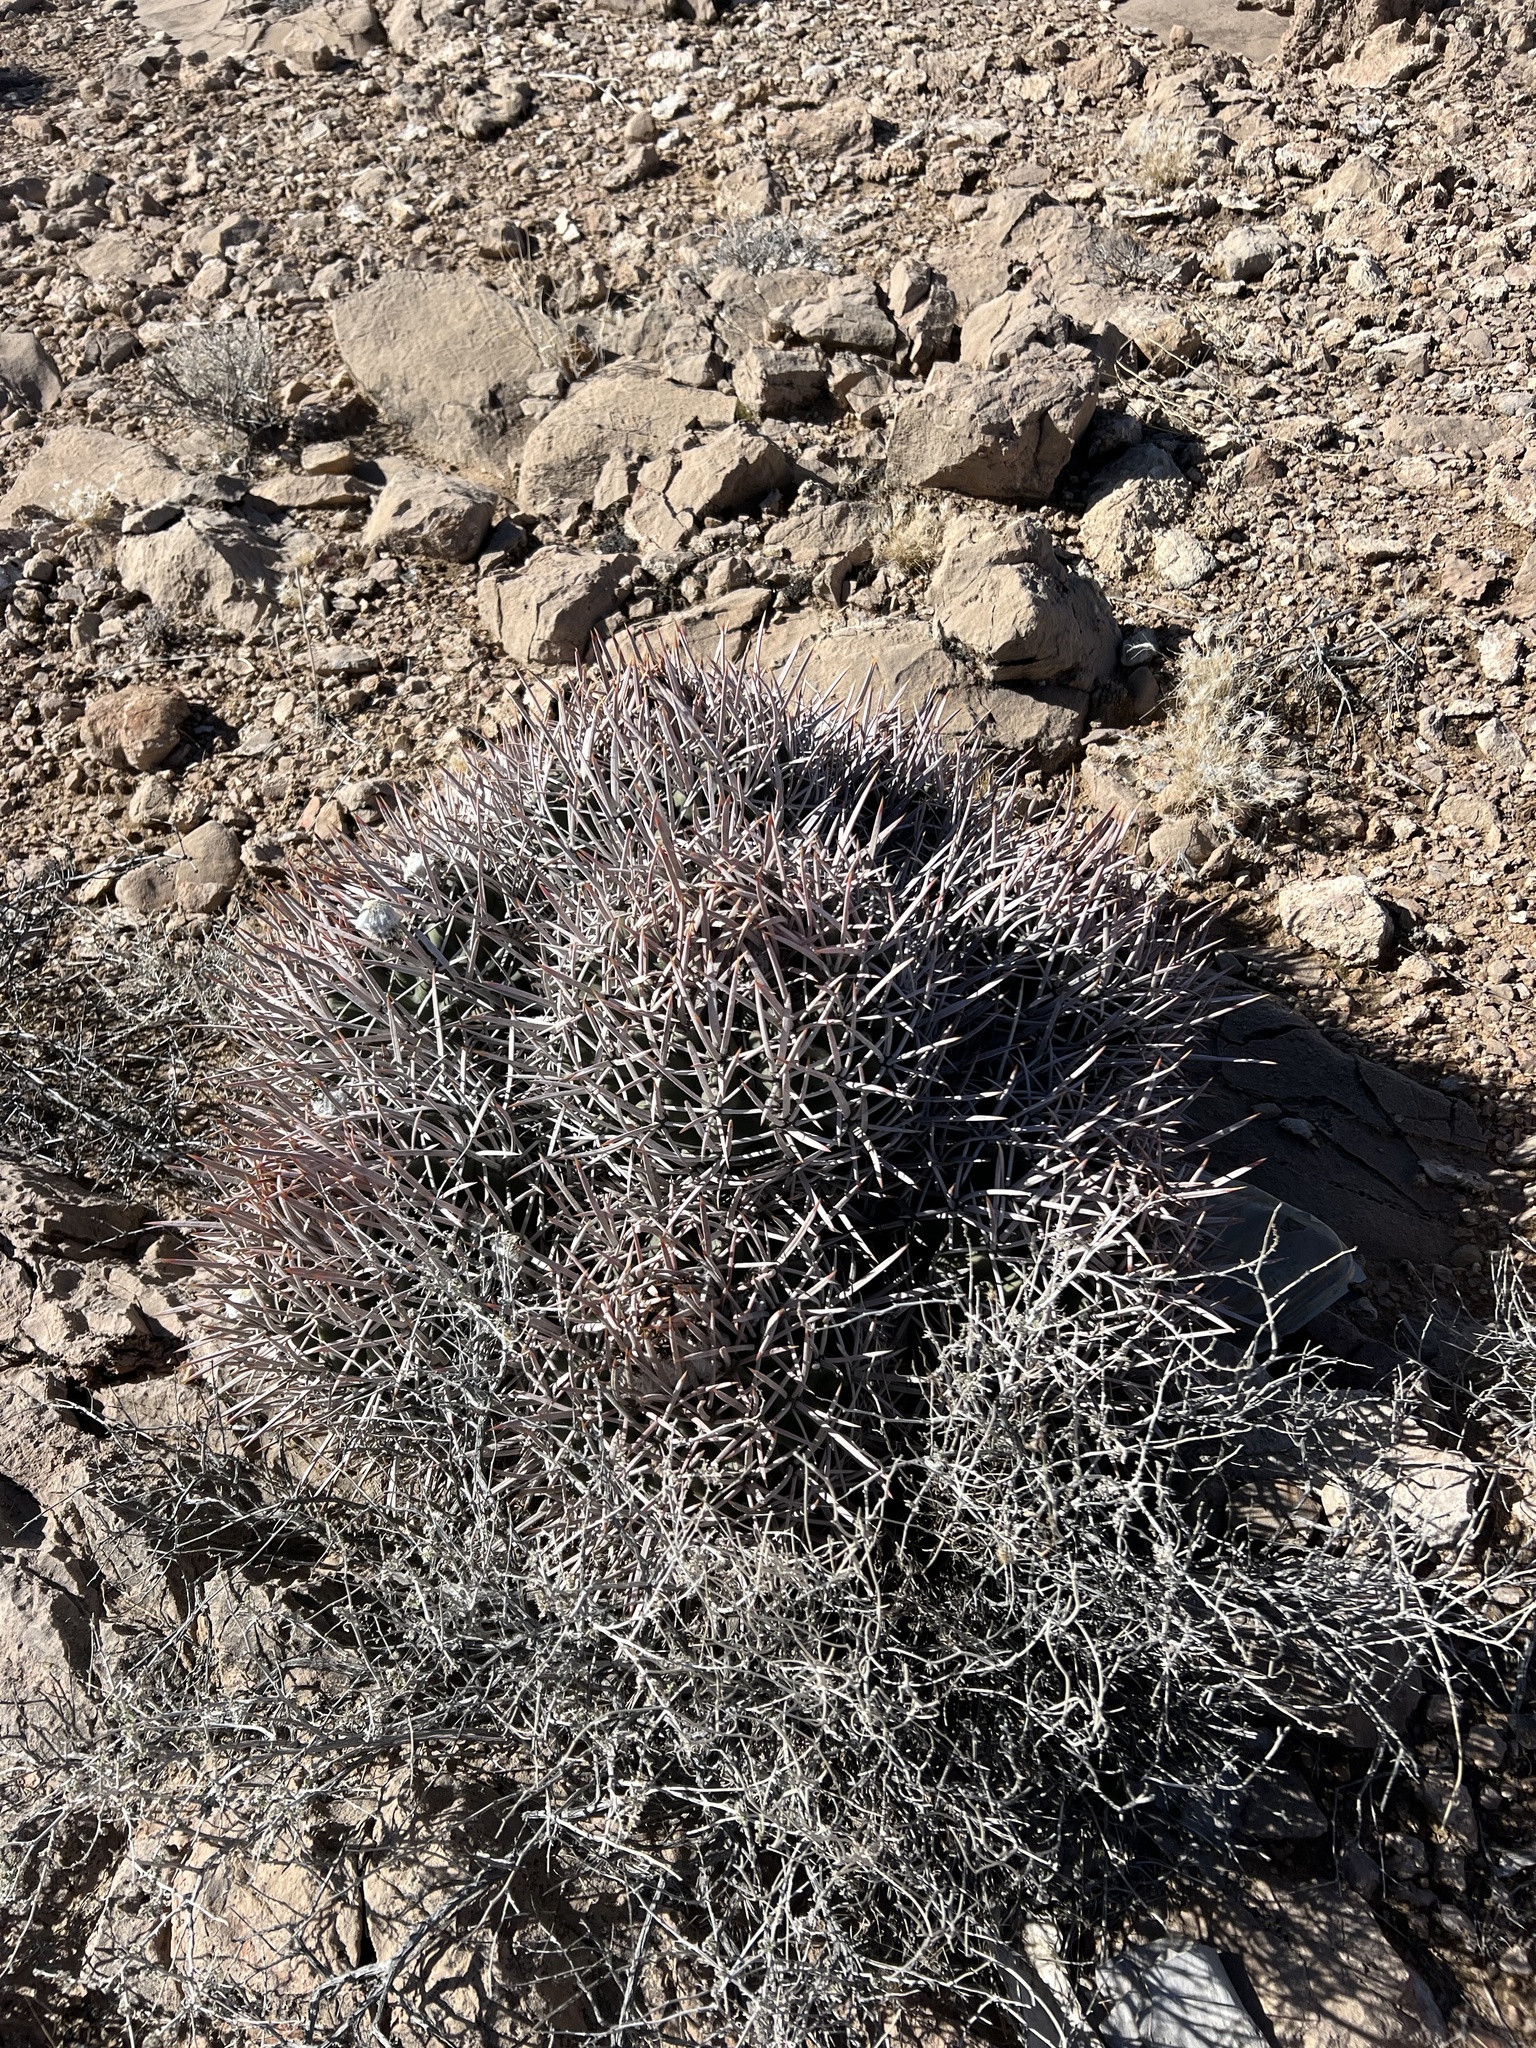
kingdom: Plantae
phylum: Tracheophyta
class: Magnoliopsida
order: Caryophyllales
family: Cactaceae
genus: Echinocactus
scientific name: Echinocactus polycephalus
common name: Cottontop cactus
